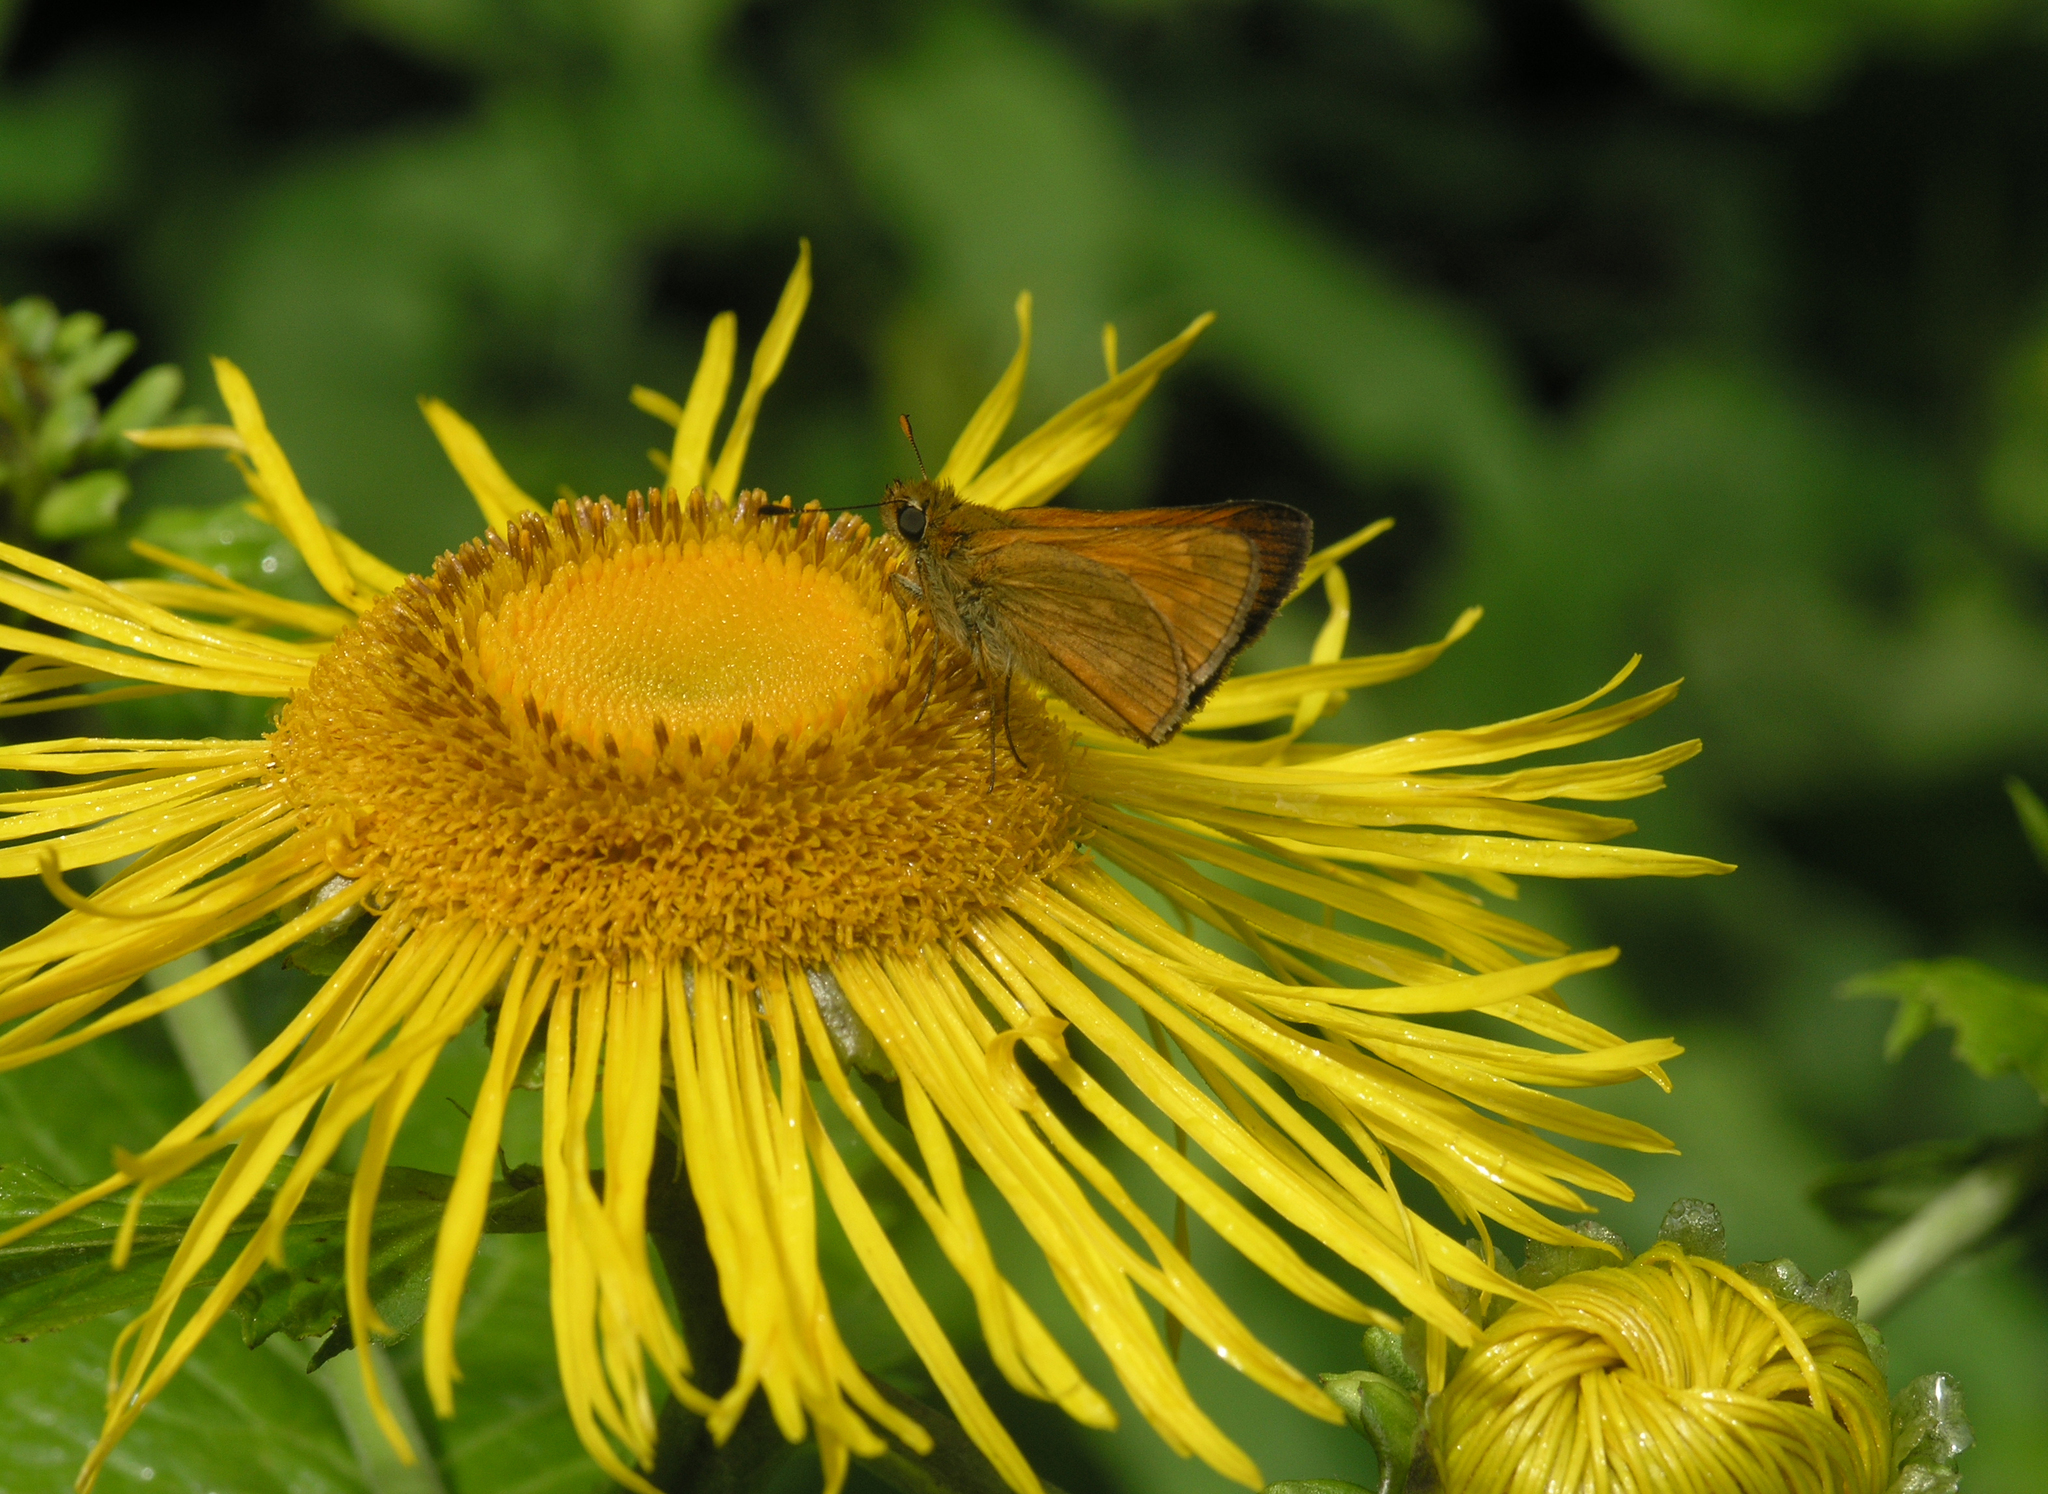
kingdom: Animalia
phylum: Arthropoda
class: Insecta
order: Lepidoptera
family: Hesperiidae
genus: Ochlodes
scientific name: Ochlodes venata
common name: Large skipper
